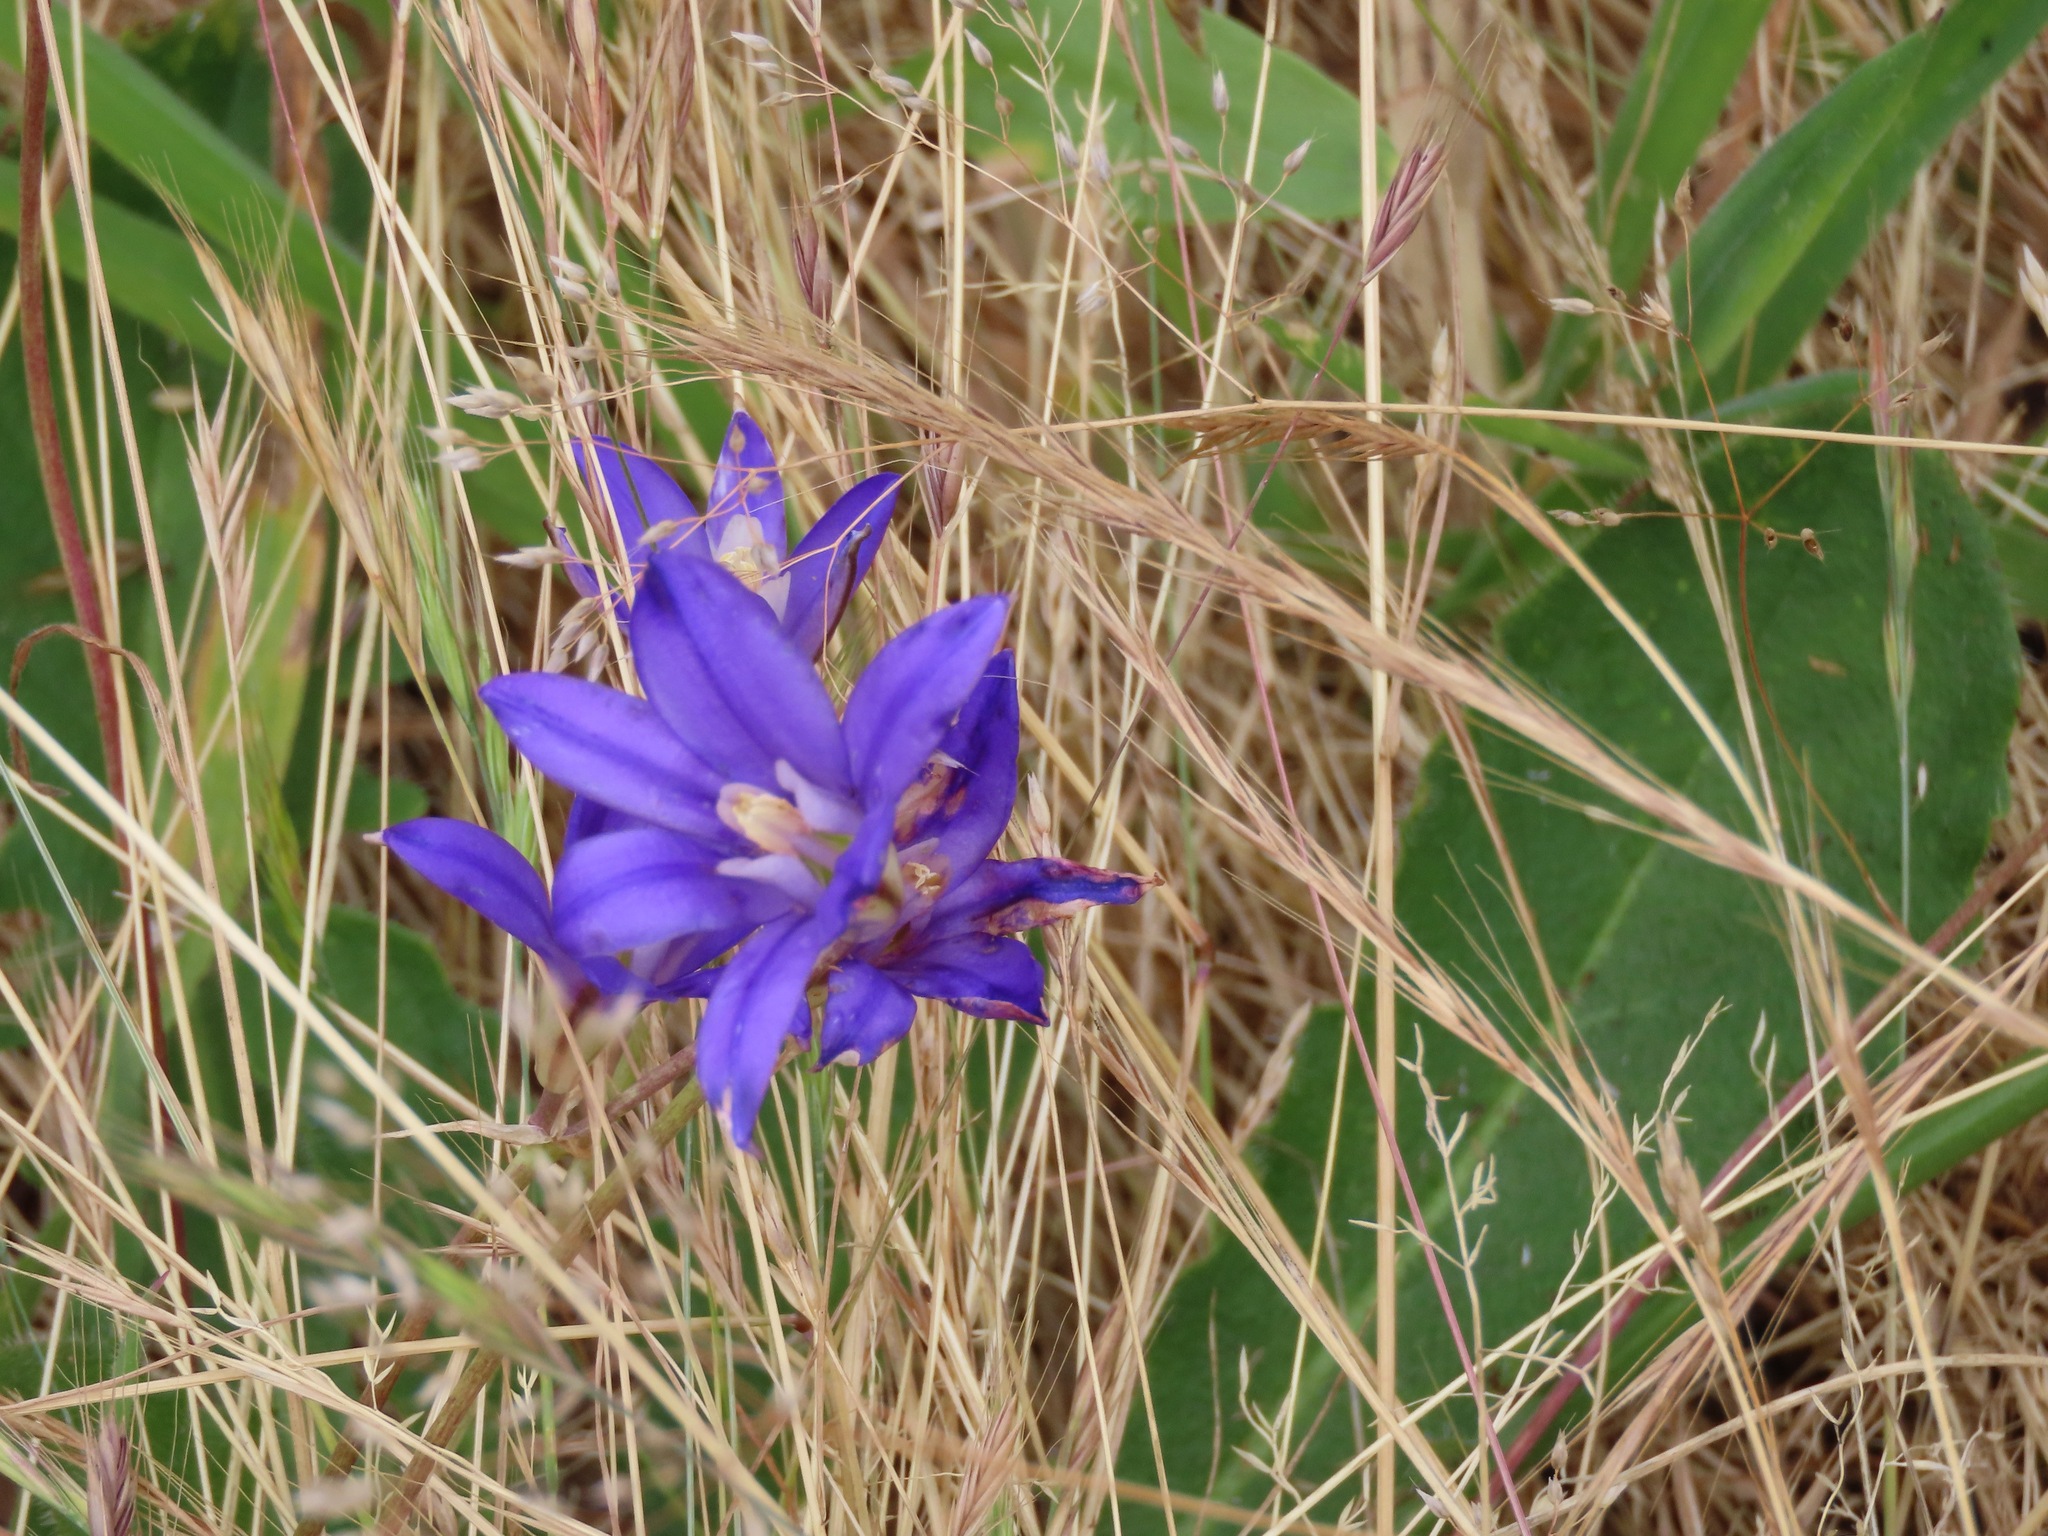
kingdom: Plantae
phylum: Tracheophyta
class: Liliopsida
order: Asparagales
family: Asparagaceae
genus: Brodiaea
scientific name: Brodiaea coronaria
